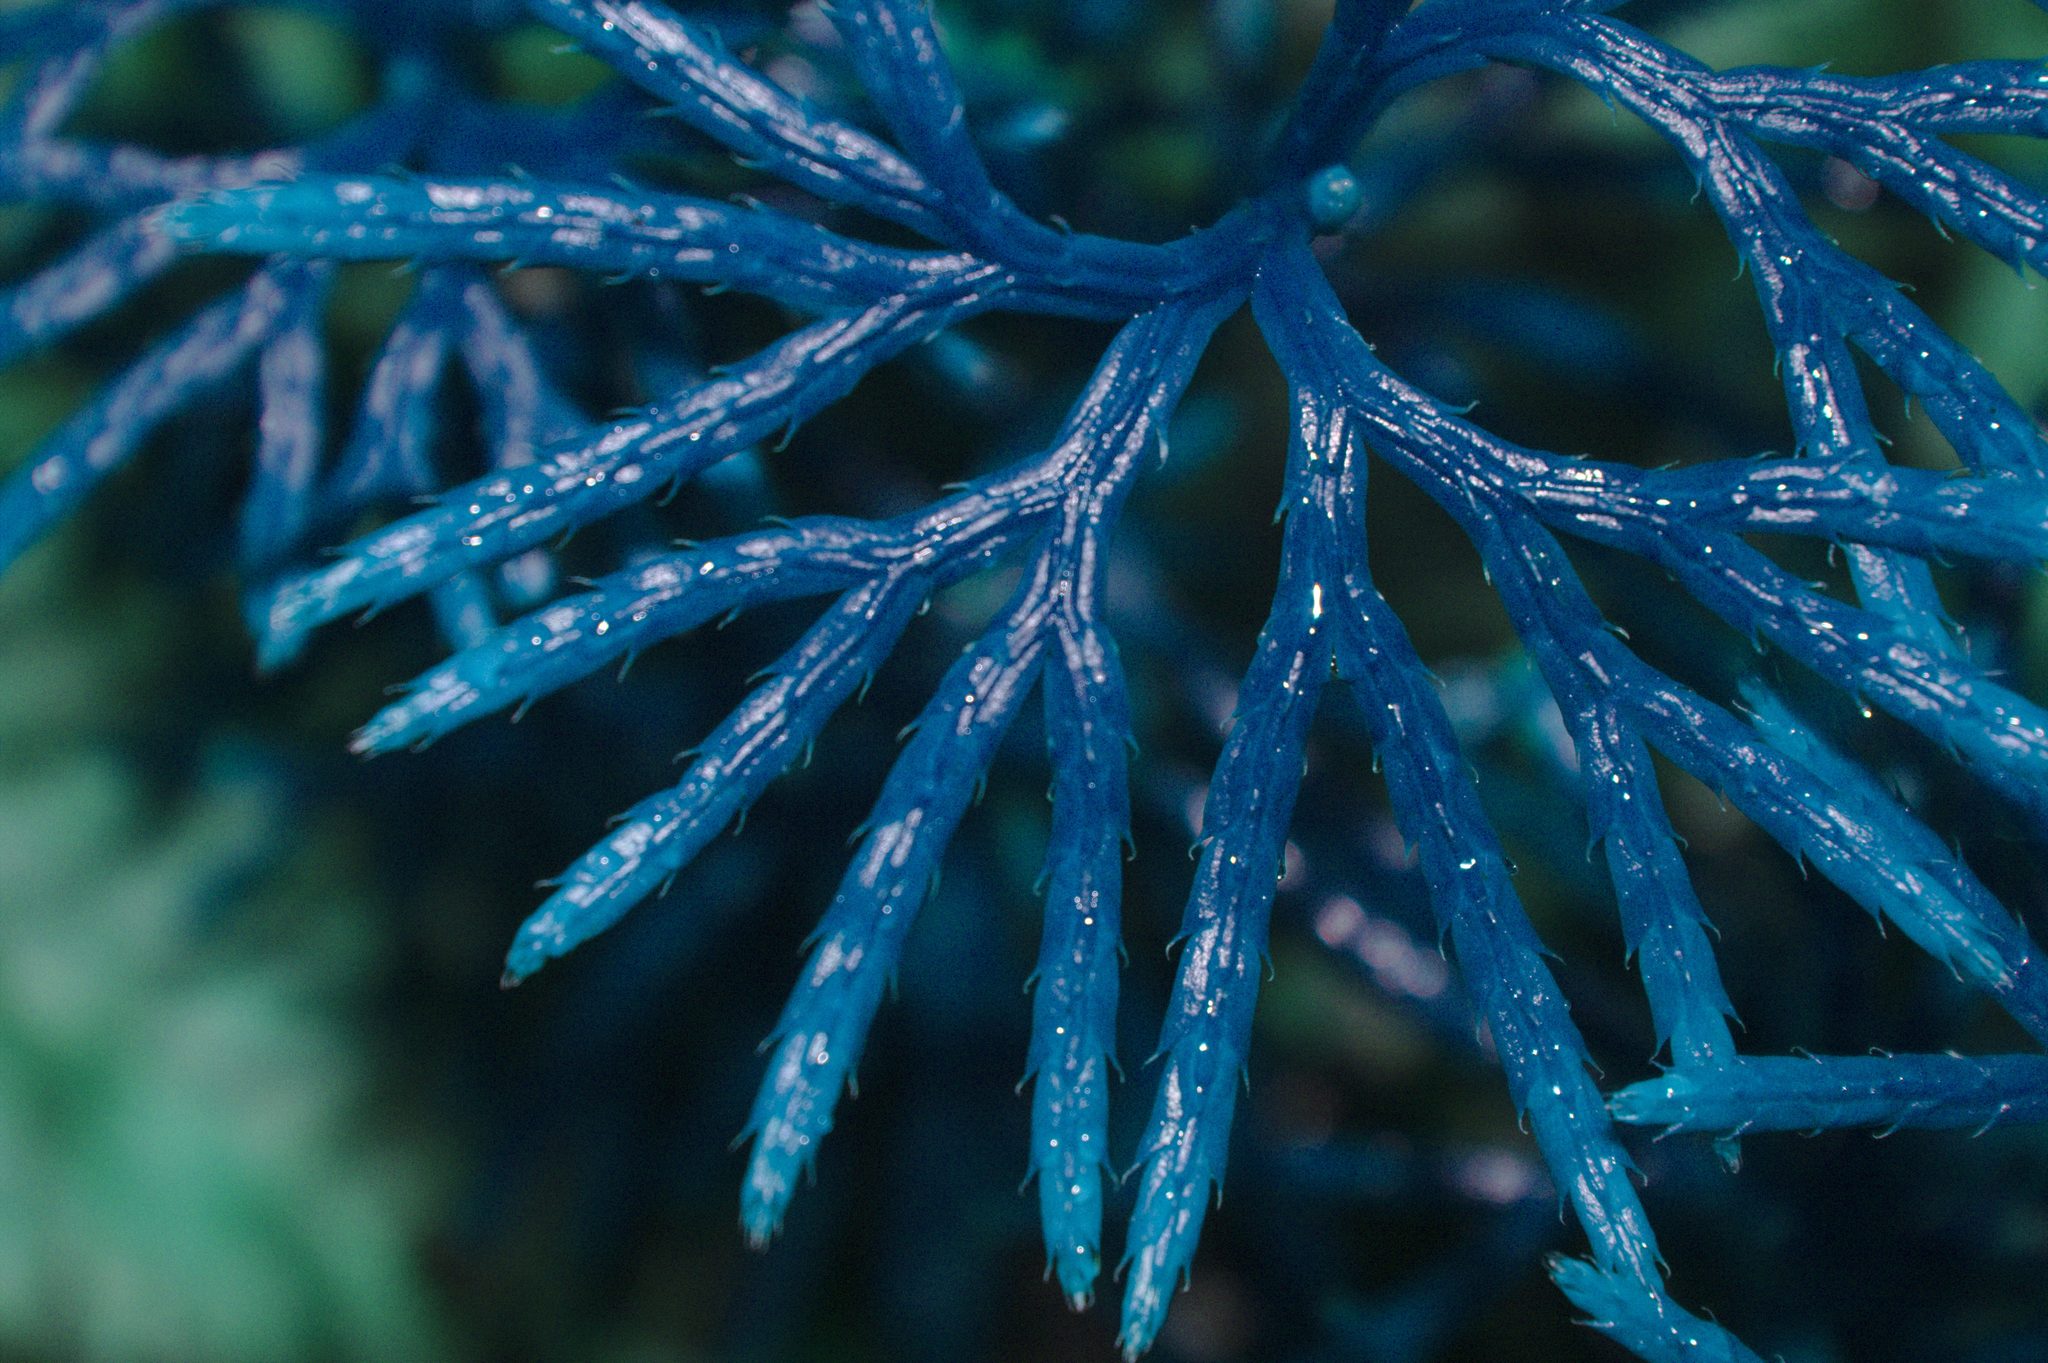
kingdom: Plantae
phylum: Tracheophyta
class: Lycopodiopsida
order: Lycopodiales
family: Lycopodiaceae
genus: Diphasiastrum
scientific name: Diphasiastrum digitatum
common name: Southern running-pine
